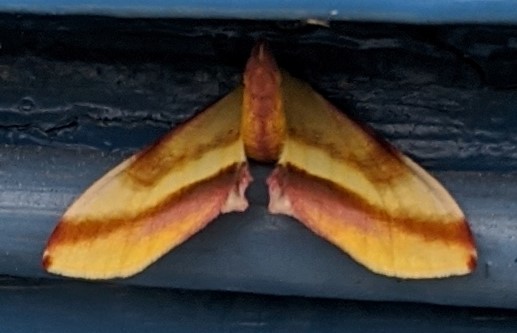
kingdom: Animalia
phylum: Arthropoda
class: Insecta
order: Lepidoptera
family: Geometridae
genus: Plagodis
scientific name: Plagodis serinaria
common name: Lemon plagodis
